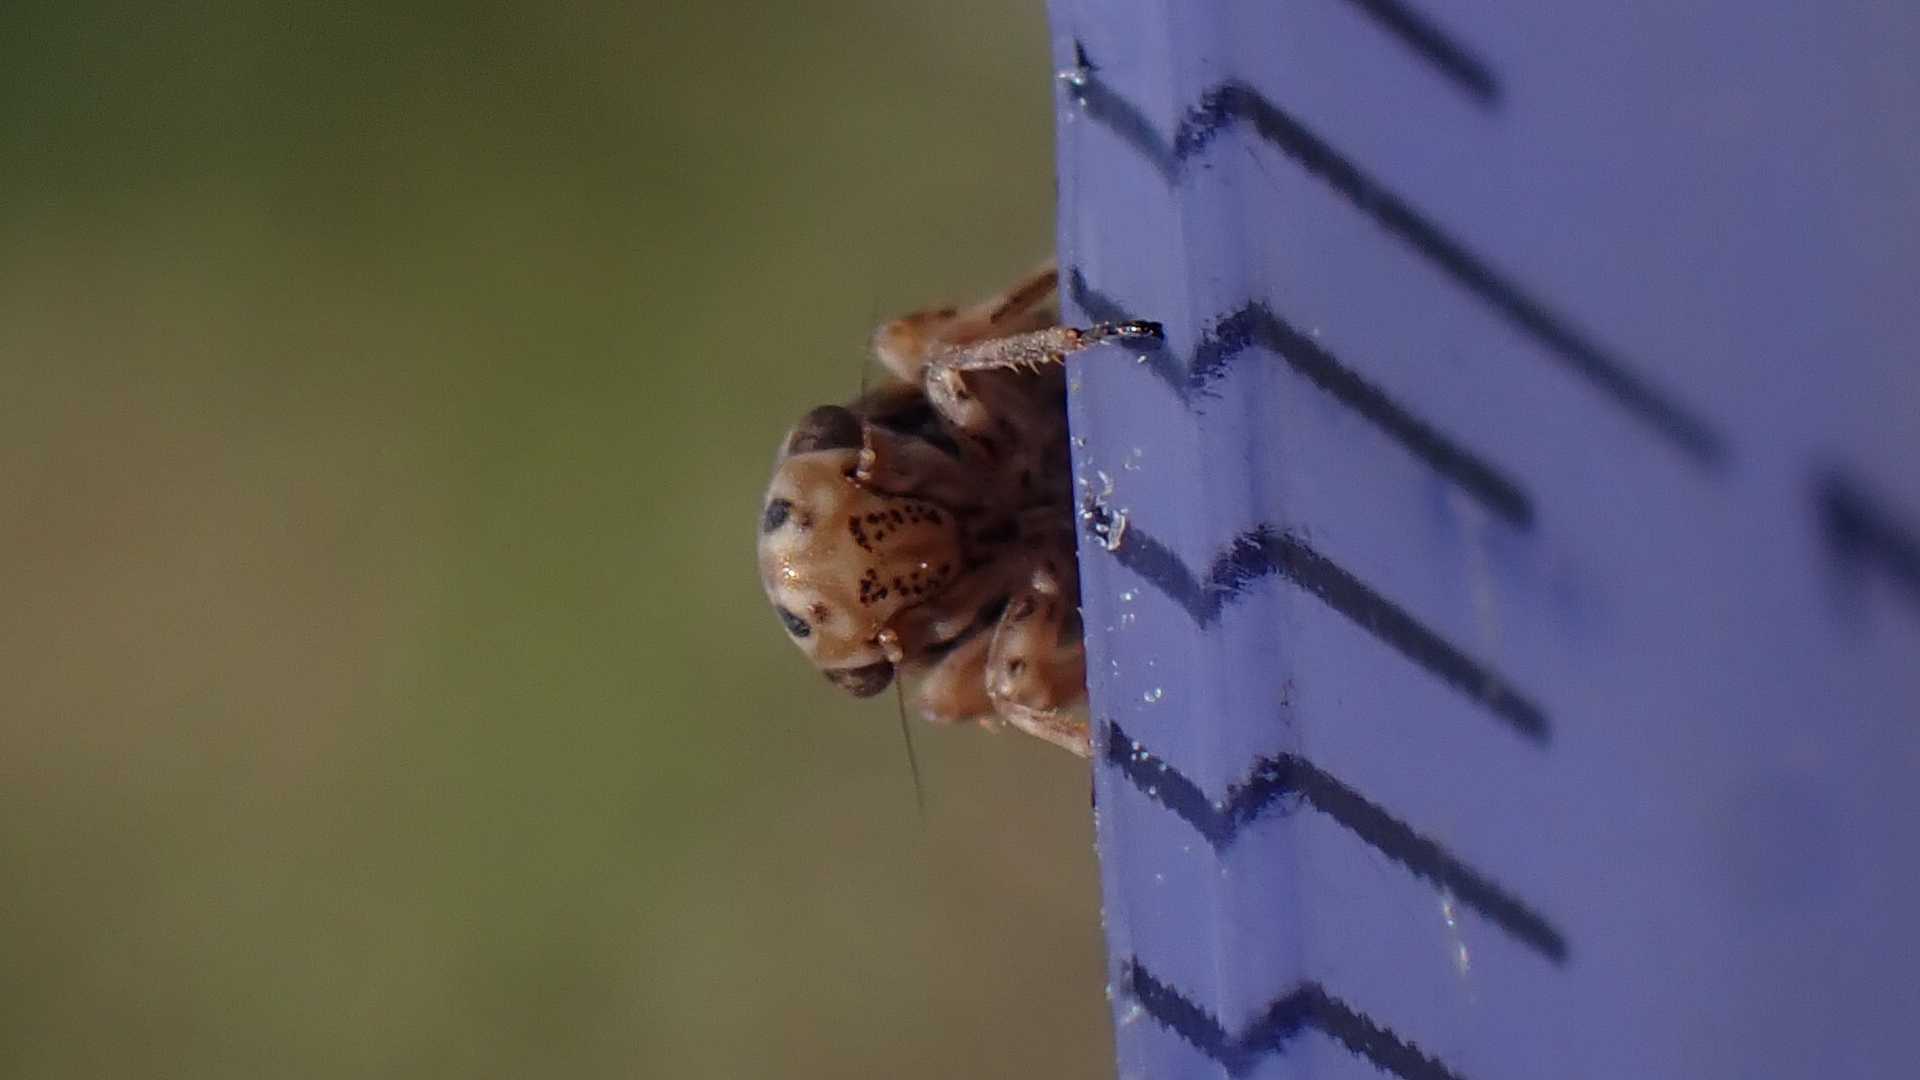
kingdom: Animalia
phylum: Arthropoda
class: Insecta
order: Hemiptera
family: Cicadellidae
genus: Anaceratagallia
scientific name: Anaceratagallia ribauti
